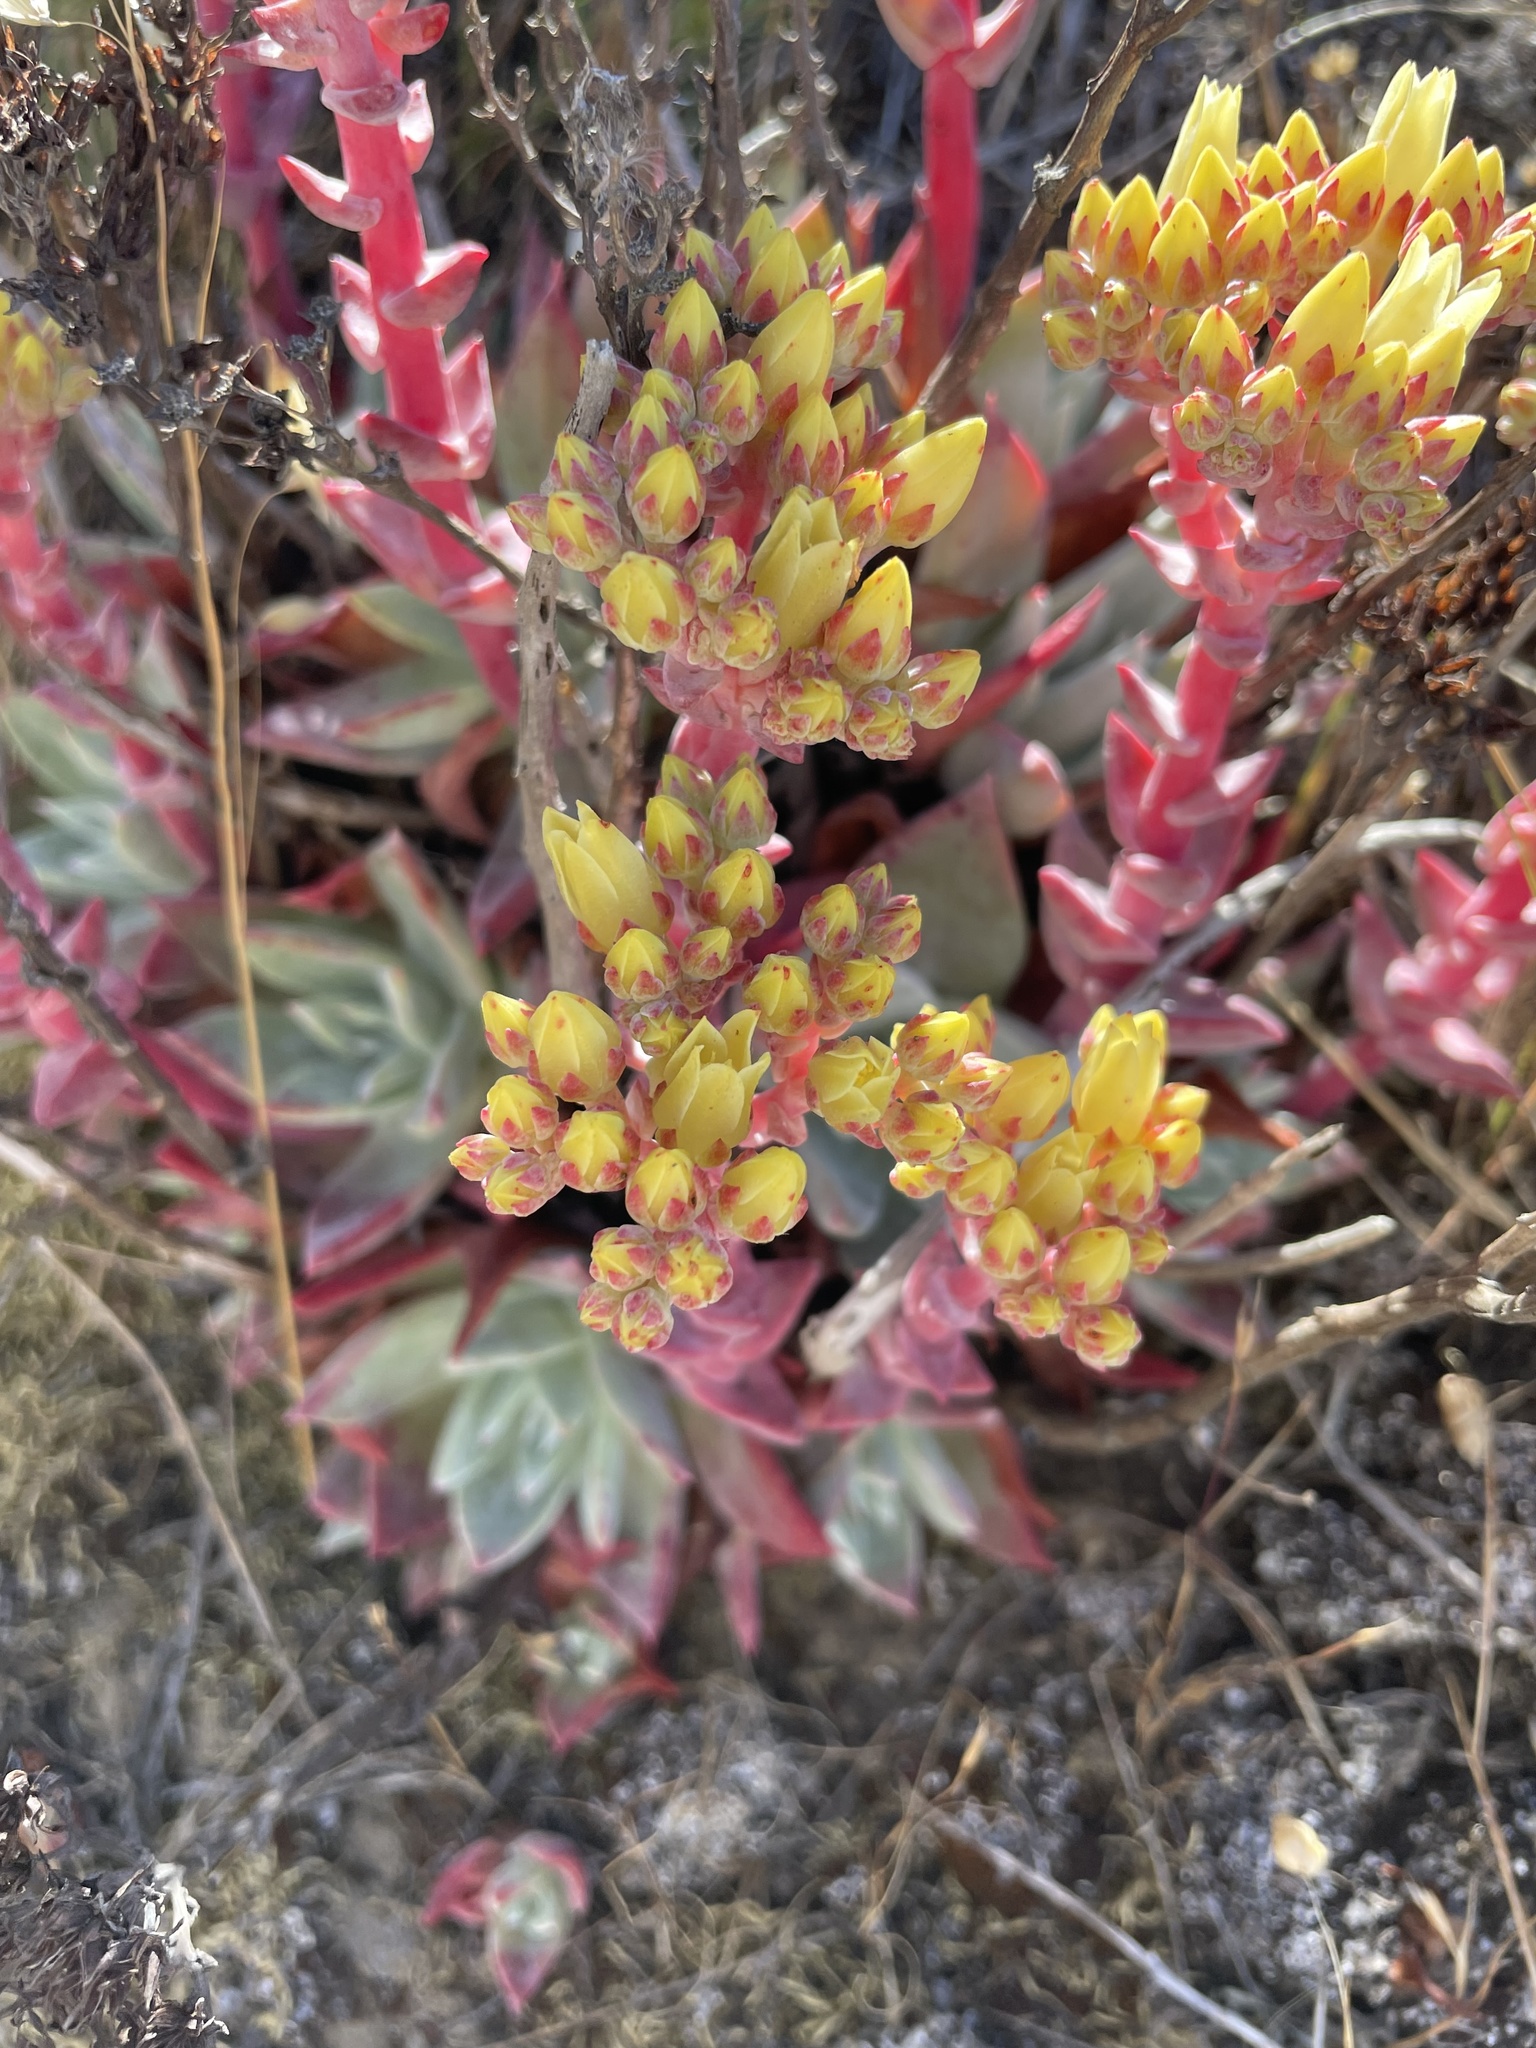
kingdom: Plantae
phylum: Tracheophyta
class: Magnoliopsida
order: Saxifragales
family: Crassulaceae
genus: Dudleya
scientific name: Dudleya farinosa
